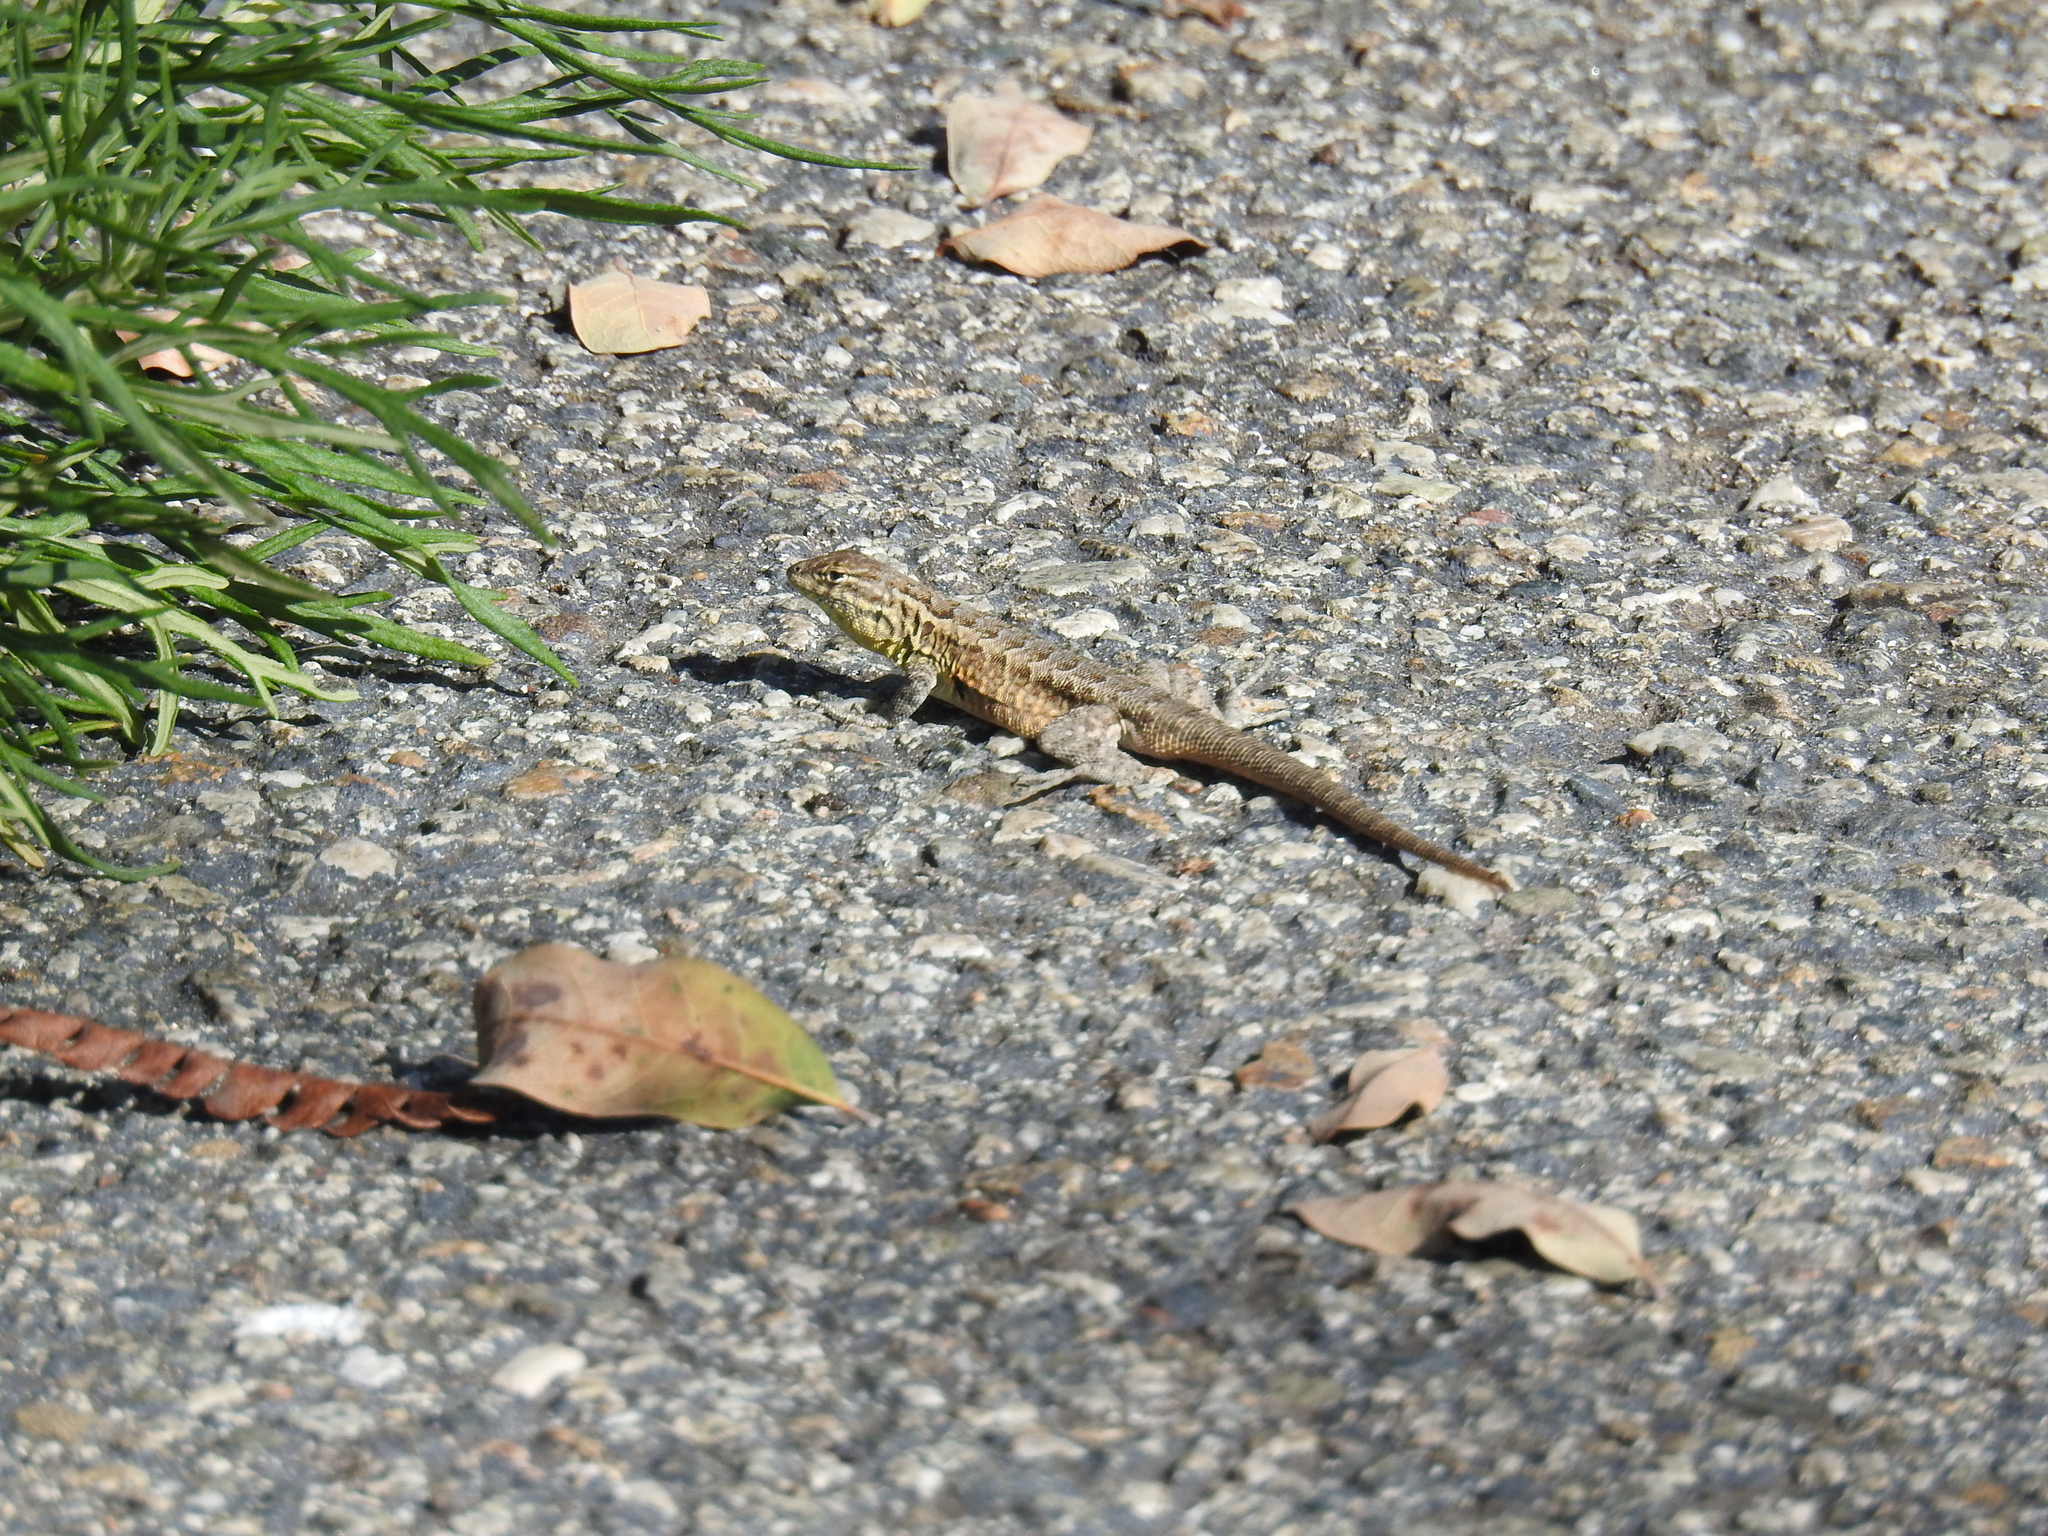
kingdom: Animalia
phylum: Chordata
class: Squamata
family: Phrynosomatidae
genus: Uta
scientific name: Uta stansburiana
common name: Side-blotched lizard
